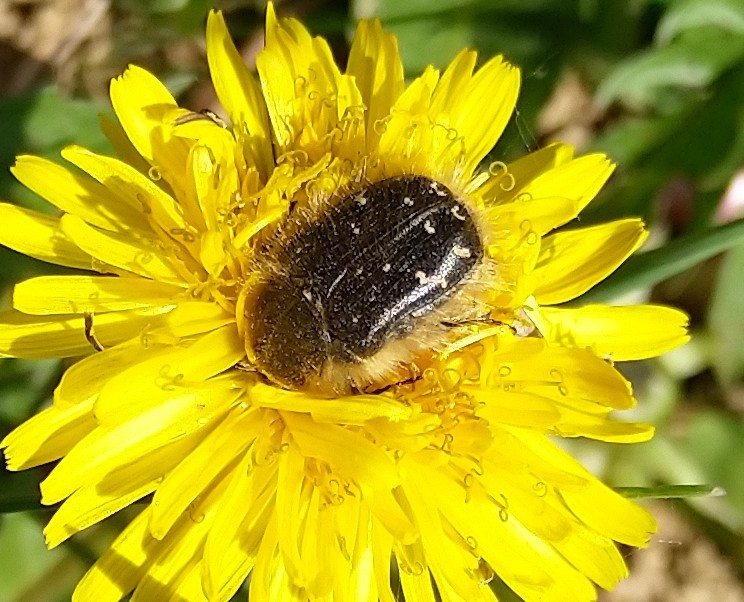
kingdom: Animalia
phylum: Arthropoda
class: Insecta
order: Coleoptera
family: Scarabaeidae
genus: Tropinota
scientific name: Tropinota hirta
